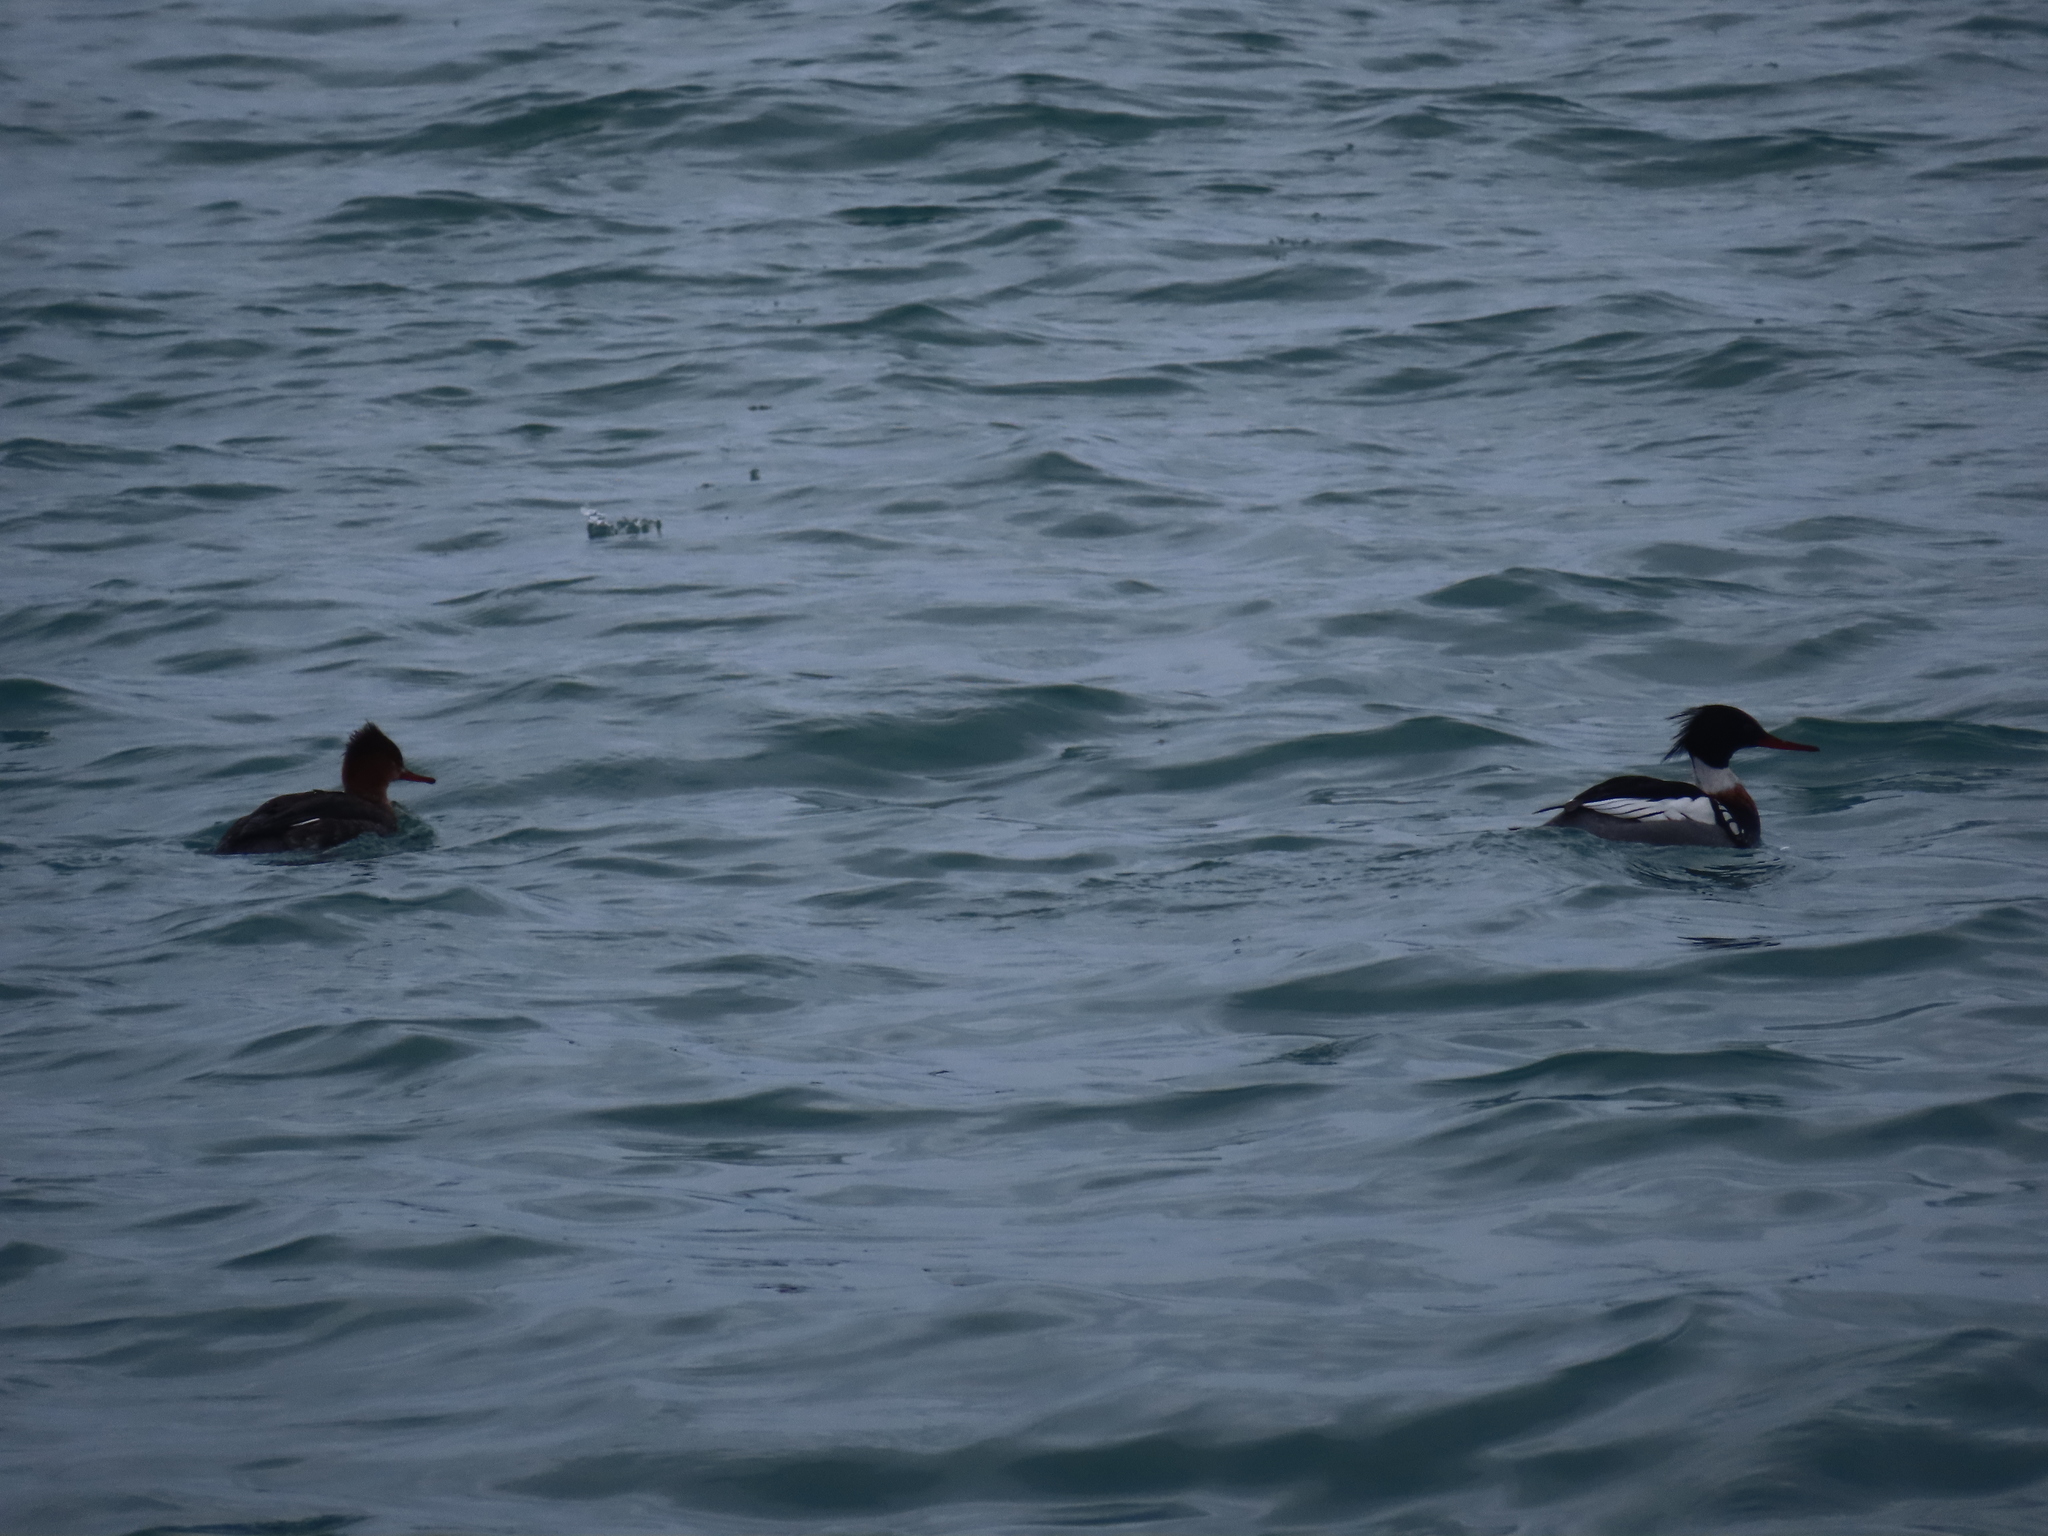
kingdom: Animalia
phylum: Chordata
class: Aves
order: Anseriformes
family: Anatidae
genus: Mergus
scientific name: Mergus serrator
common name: Red-breasted merganser
